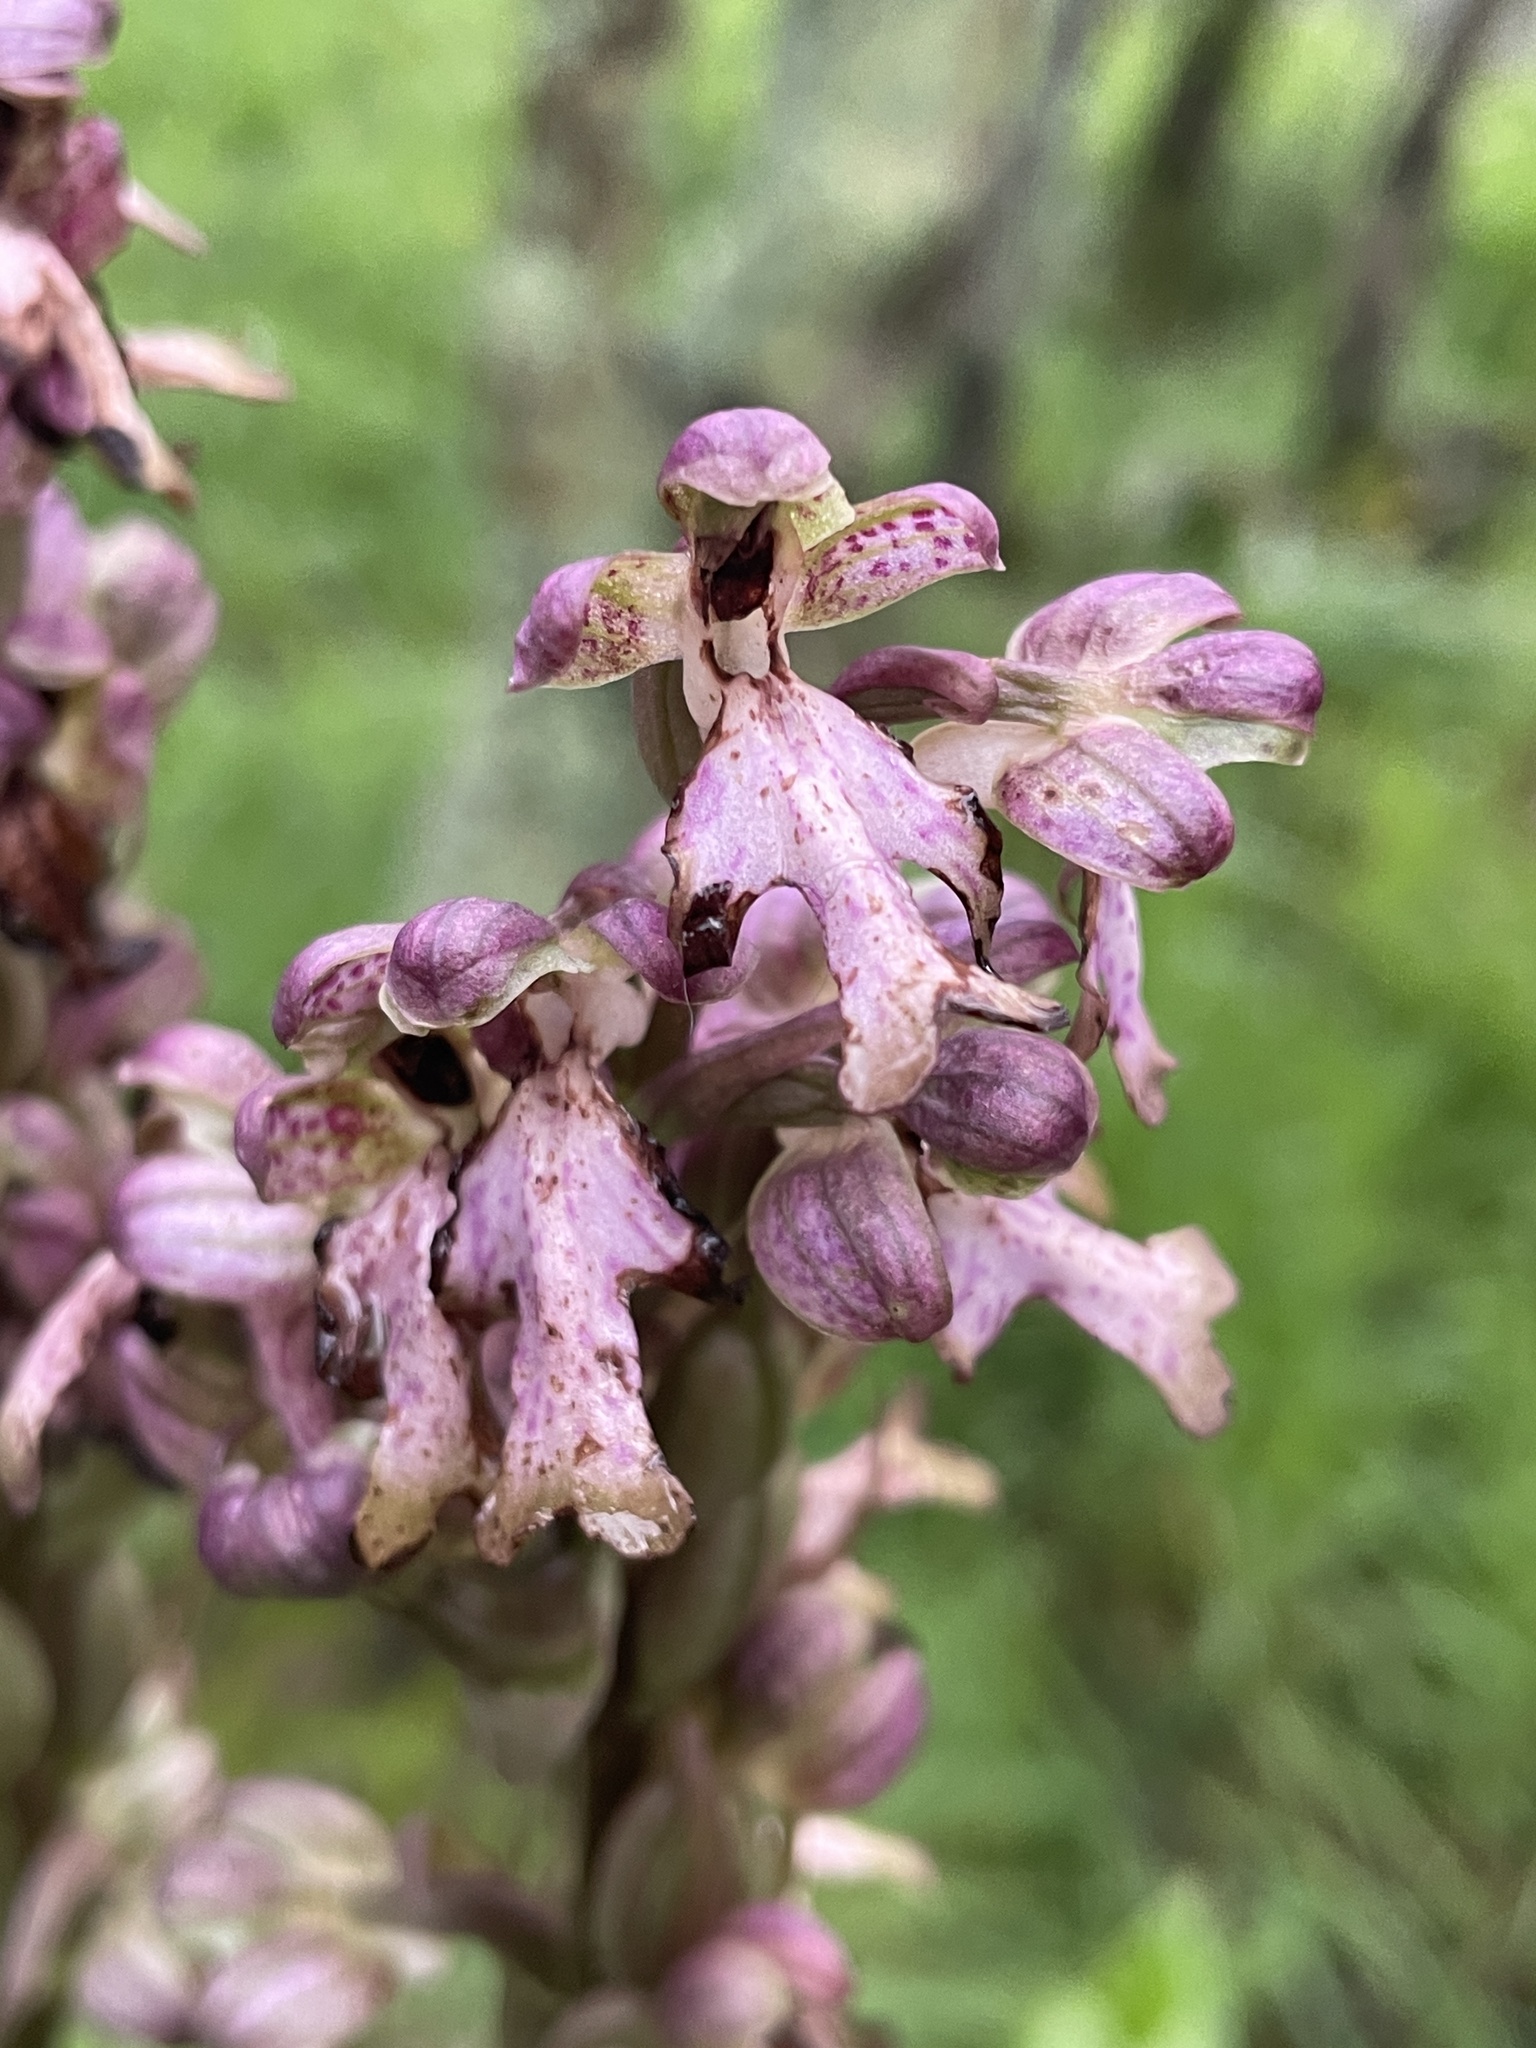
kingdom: Plantae
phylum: Tracheophyta
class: Liliopsida
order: Asparagales
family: Orchidaceae
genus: Himantoglossum
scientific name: Himantoglossum robertianum
